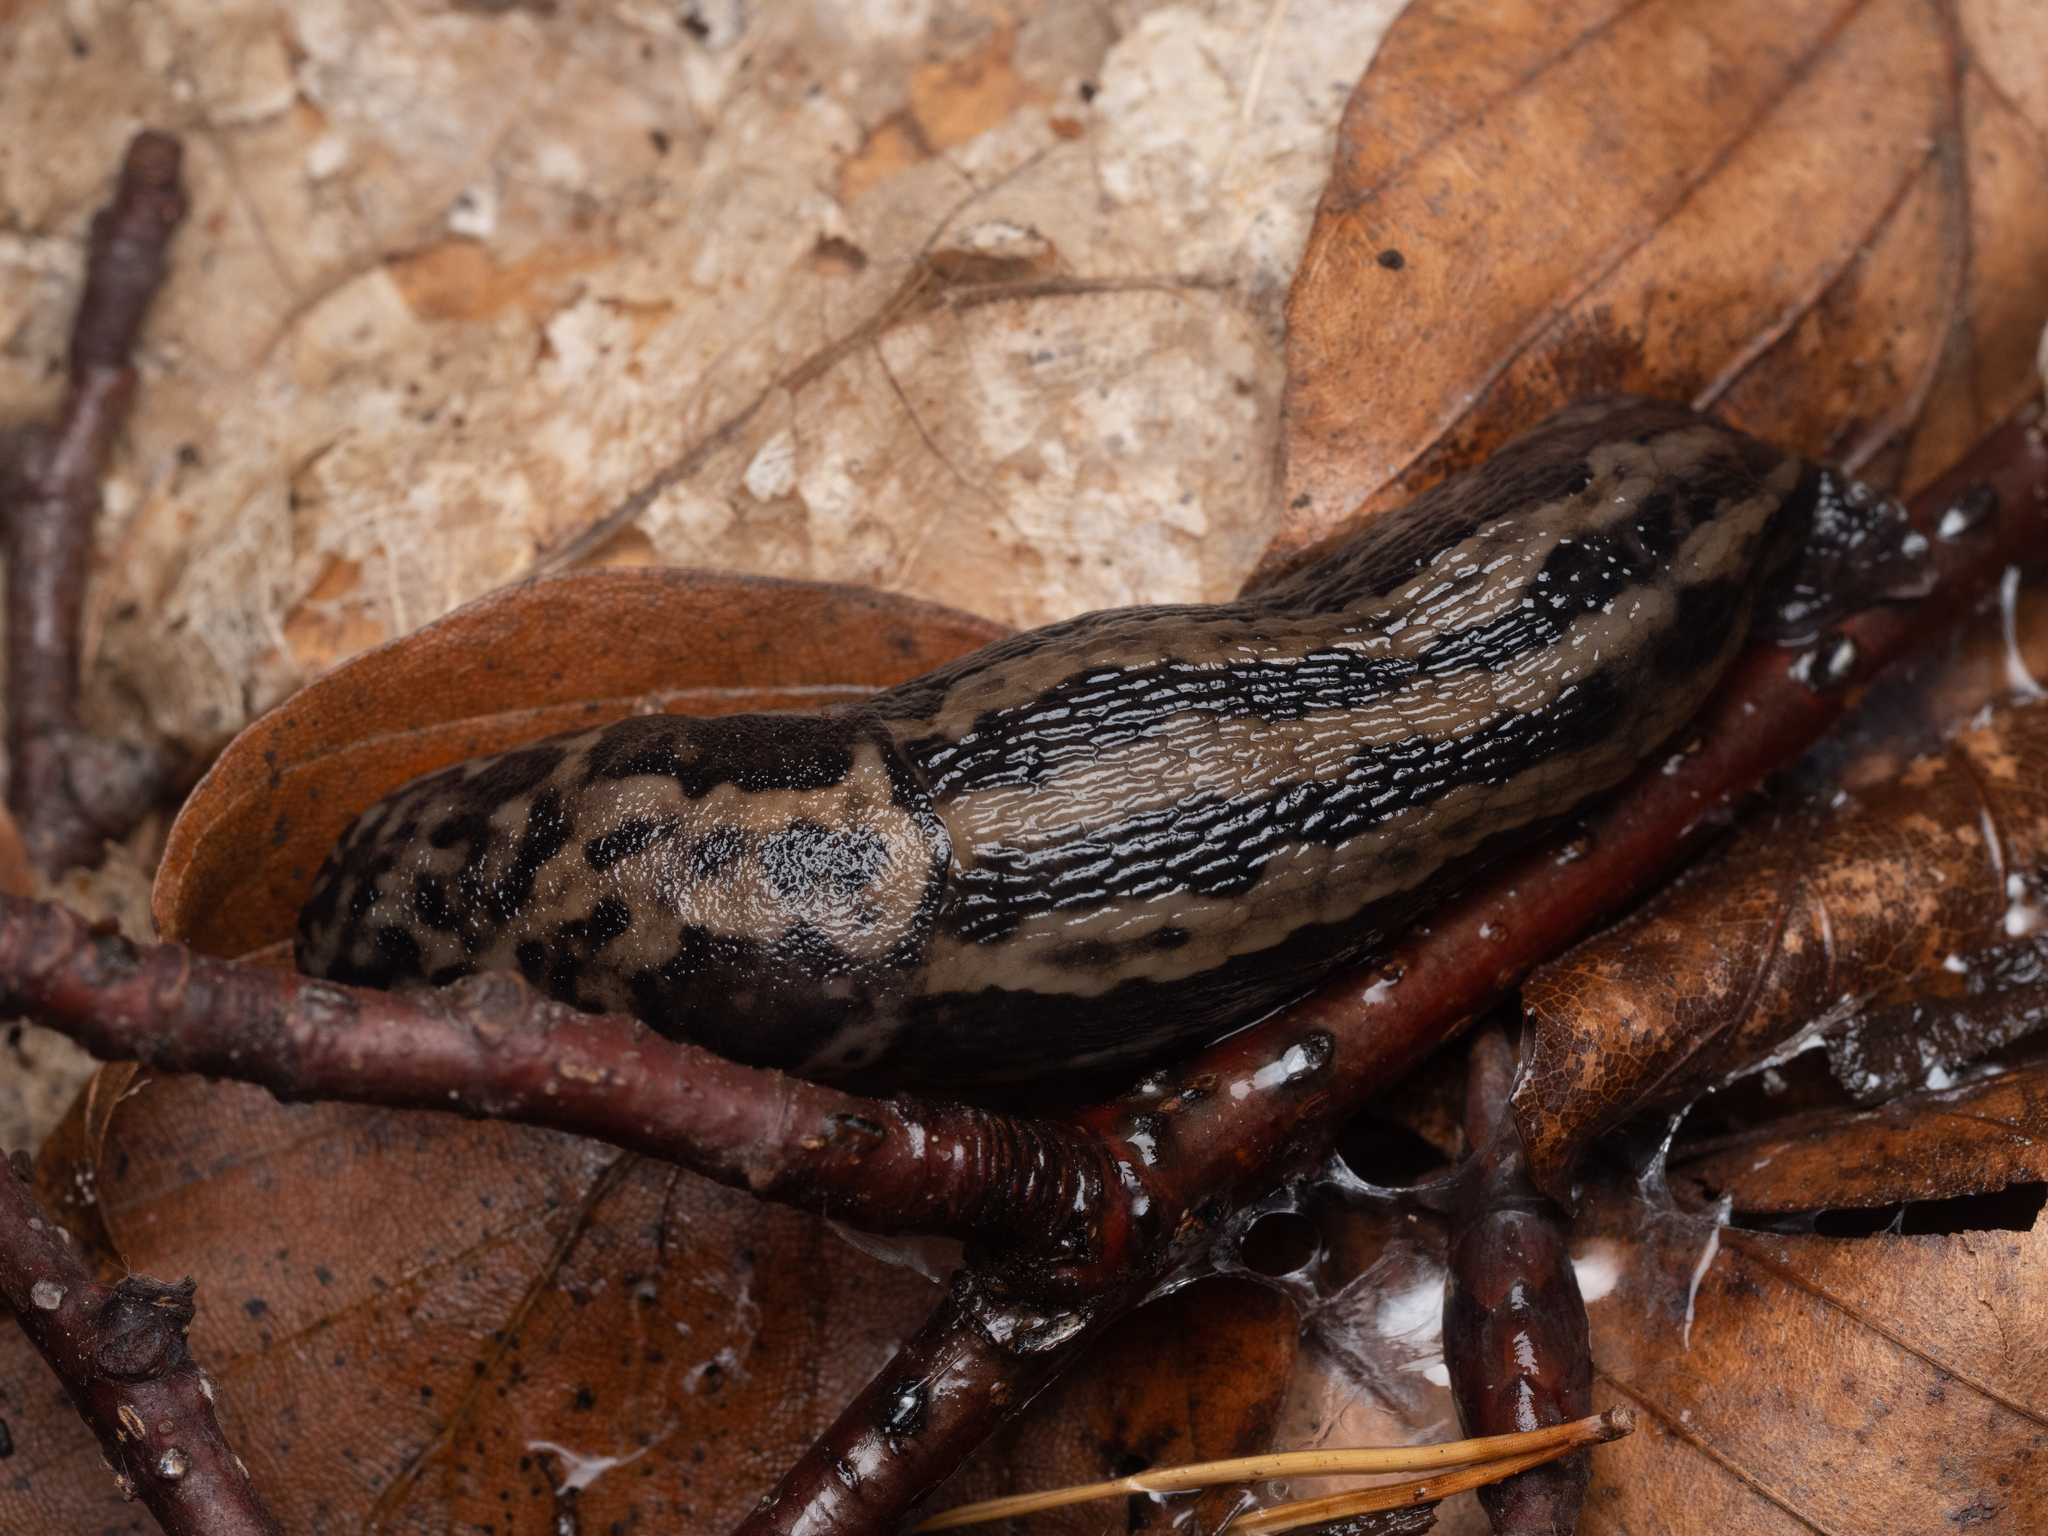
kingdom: Animalia
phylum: Mollusca
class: Gastropoda
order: Stylommatophora
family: Limacidae
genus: Limax
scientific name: Limax maximus
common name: Great grey slug
